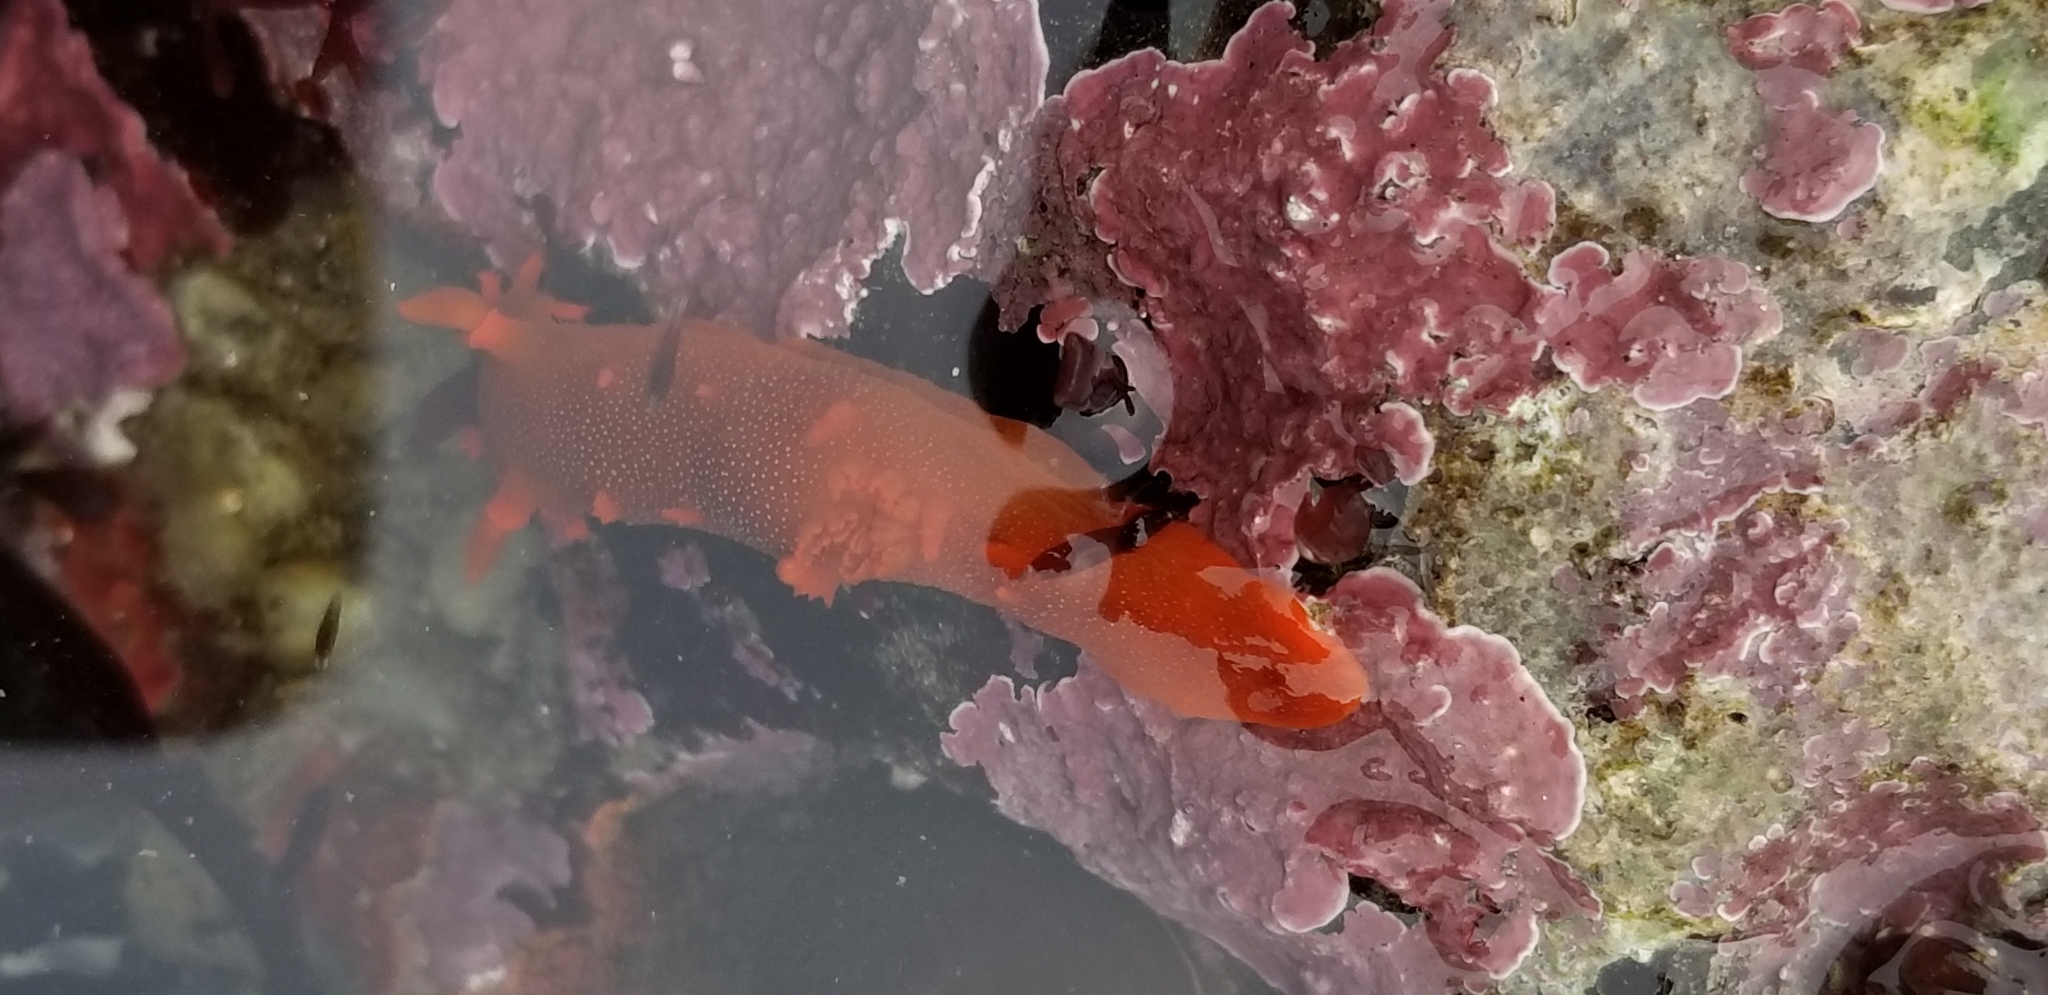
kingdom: Animalia
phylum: Mollusca
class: Gastropoda
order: Nudibranchia
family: Polyceridae
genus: Triopha
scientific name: Triopha maculata
